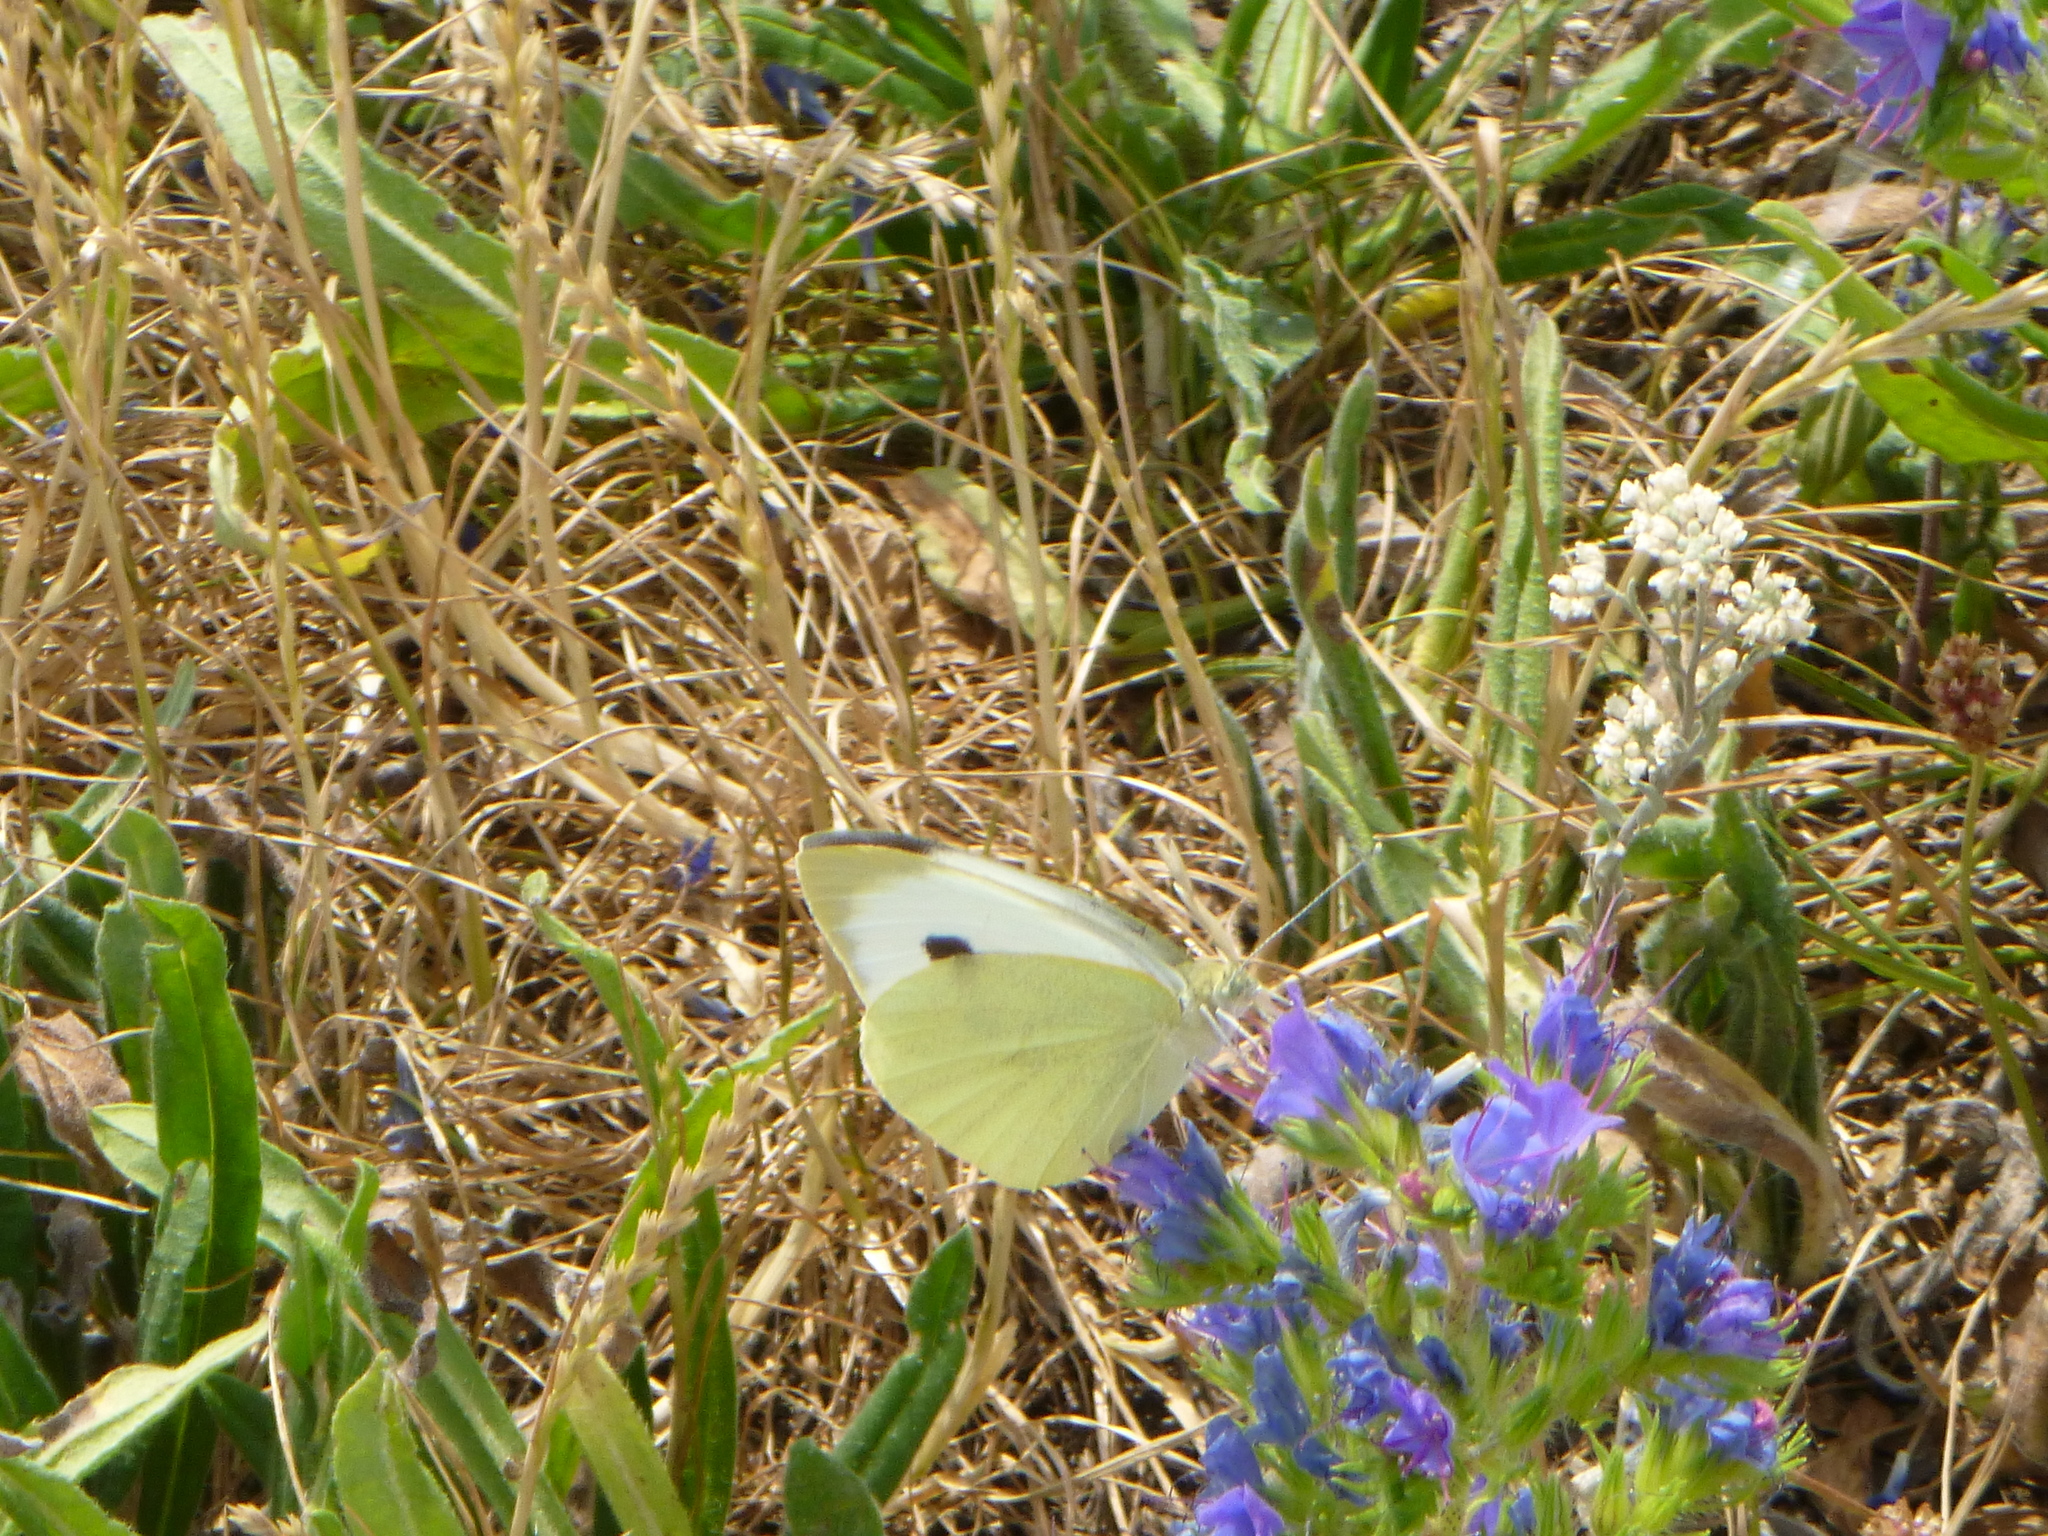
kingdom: Animalia
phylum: Arthropoda
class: Insecta
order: Lepidoptera
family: Pieridae
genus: Pieris
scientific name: Pieris brassicae
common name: Large white
